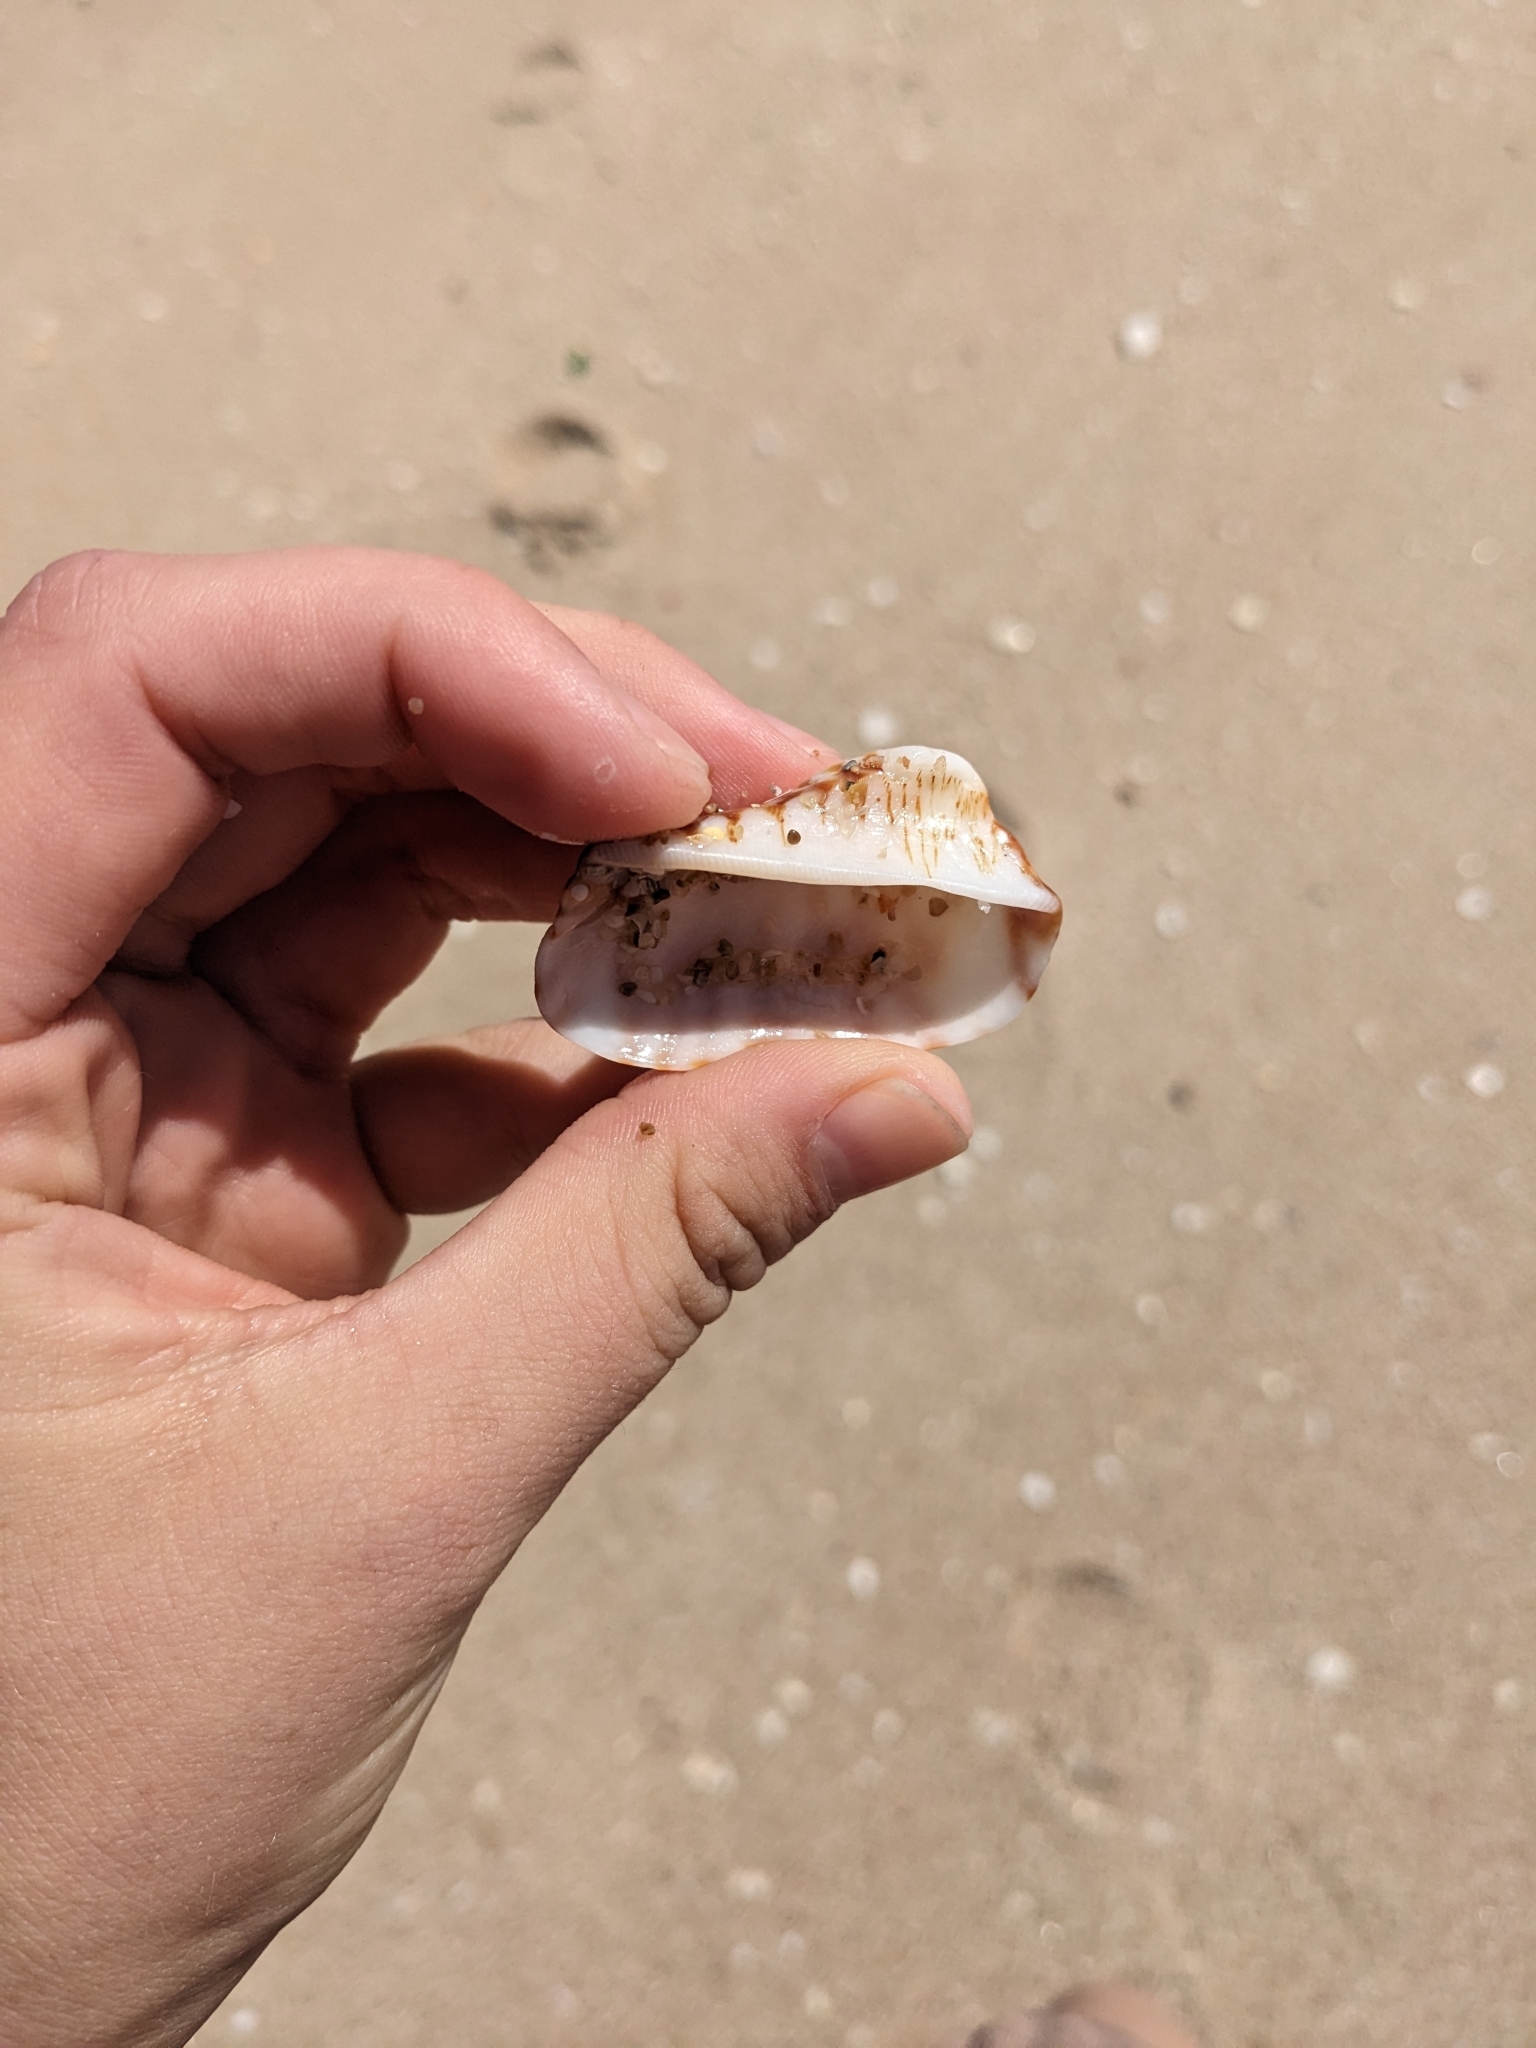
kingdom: Animalia
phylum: Mollusca
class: Bivalvia
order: Arcida
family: Arcidae
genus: Arca
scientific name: Arca pacifica
